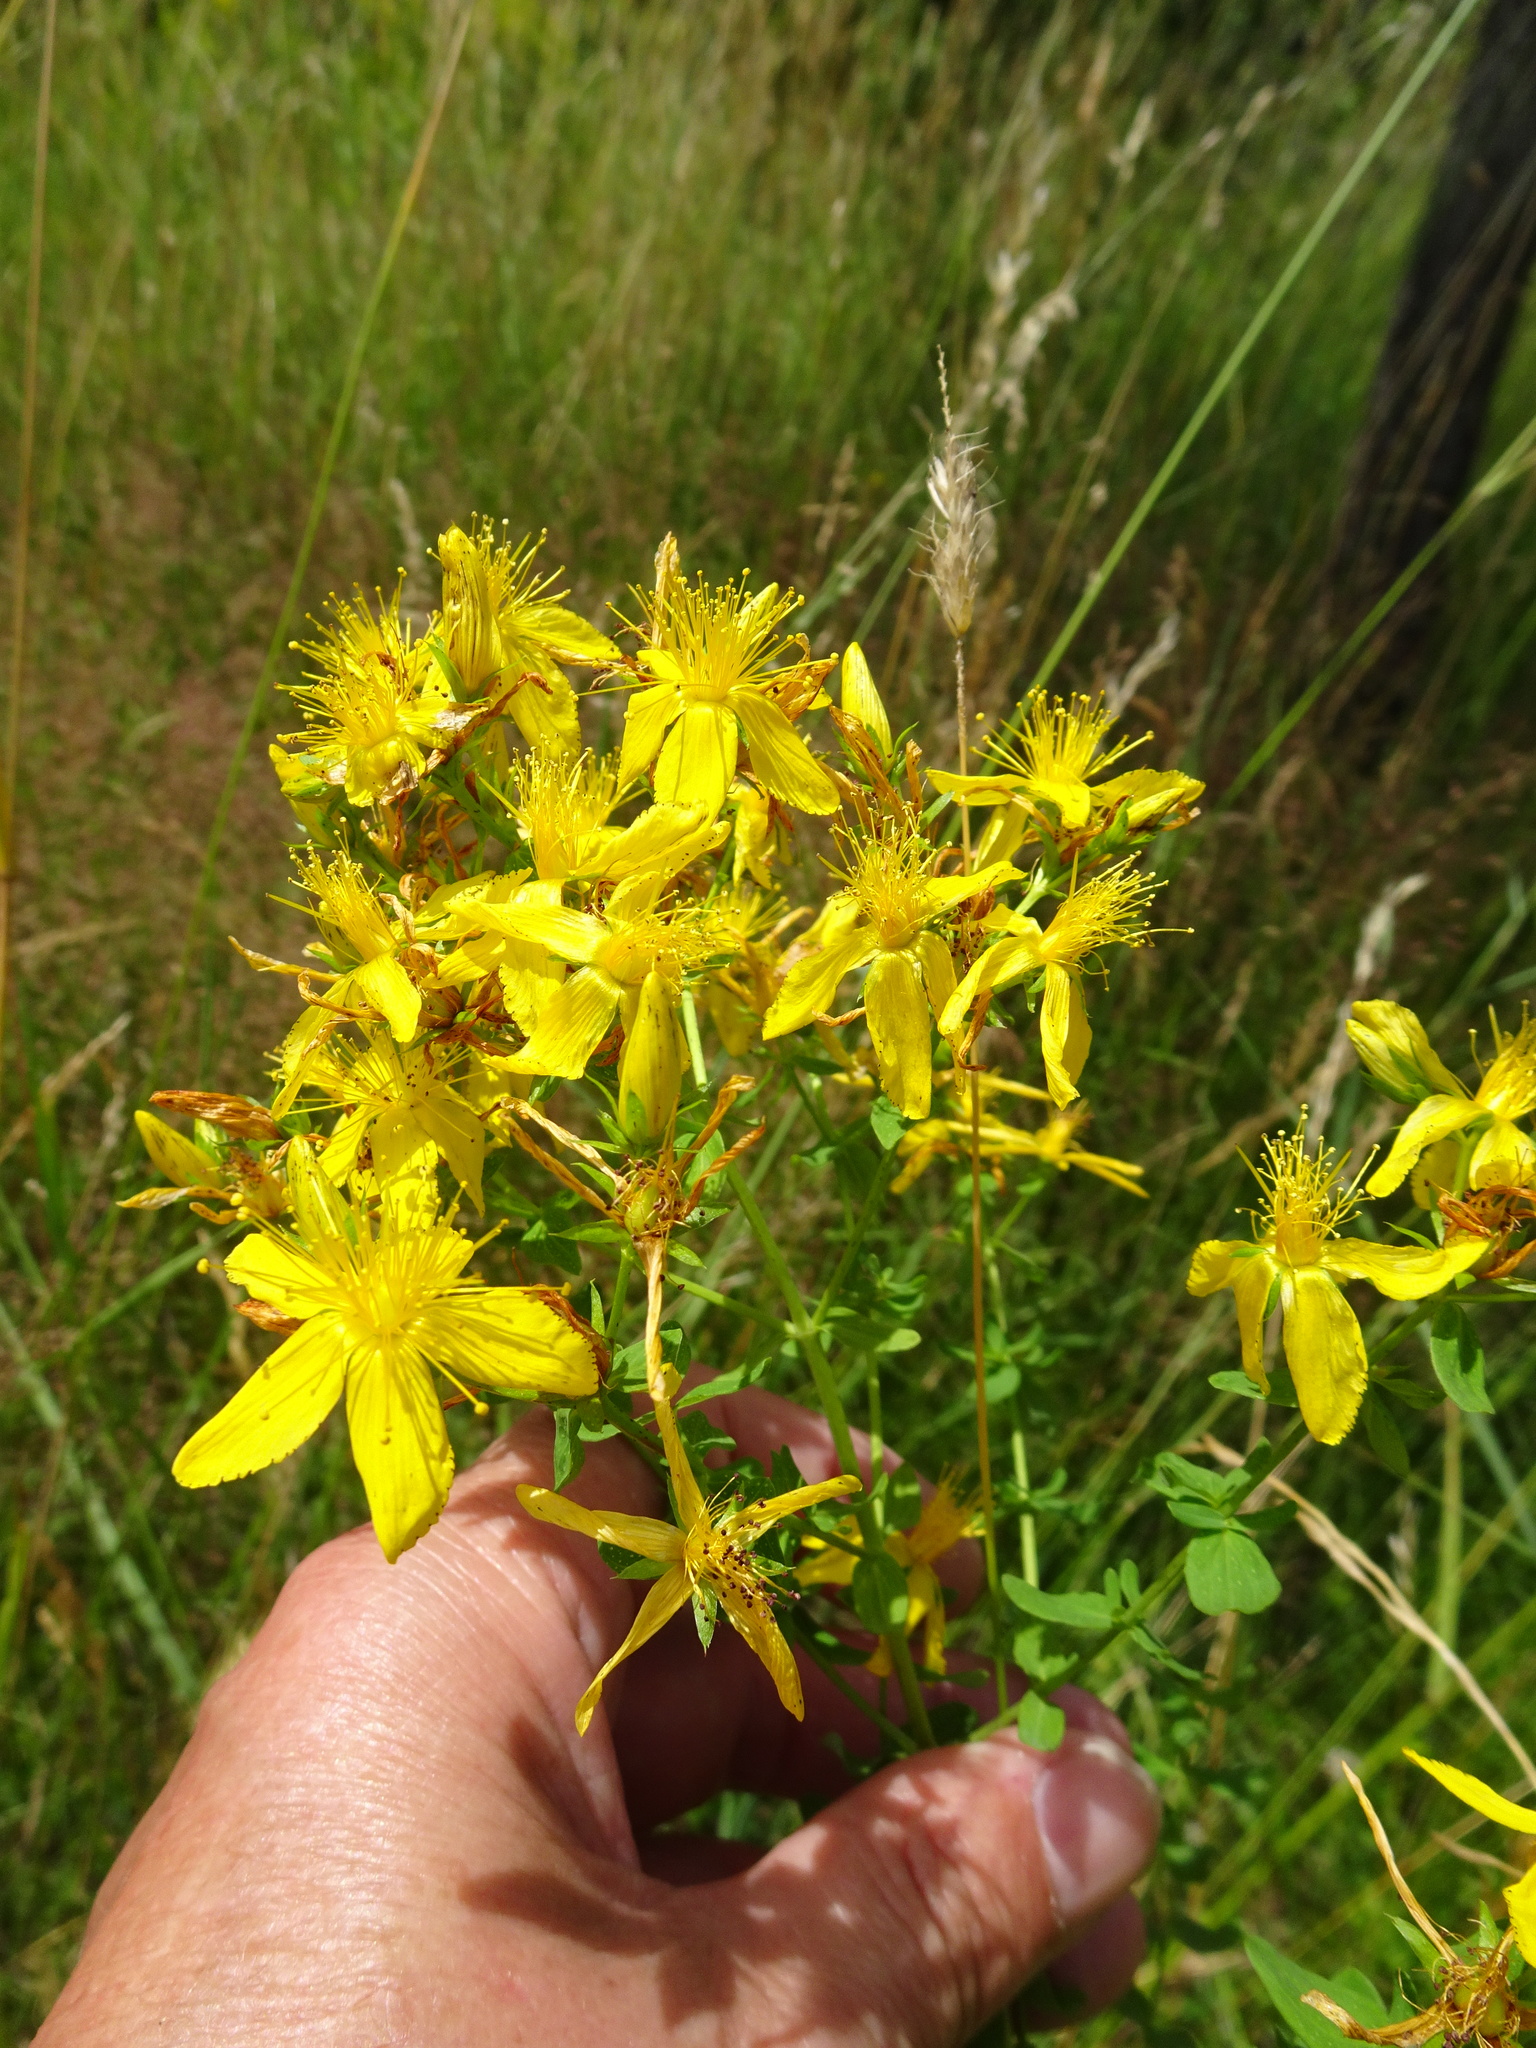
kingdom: Plantae
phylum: Tracheophyta
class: Magnoliopsida
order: Malpighiales
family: Hypericaceae
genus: Hypericum
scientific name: Hypericum perforatum
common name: Common st. johnswort
